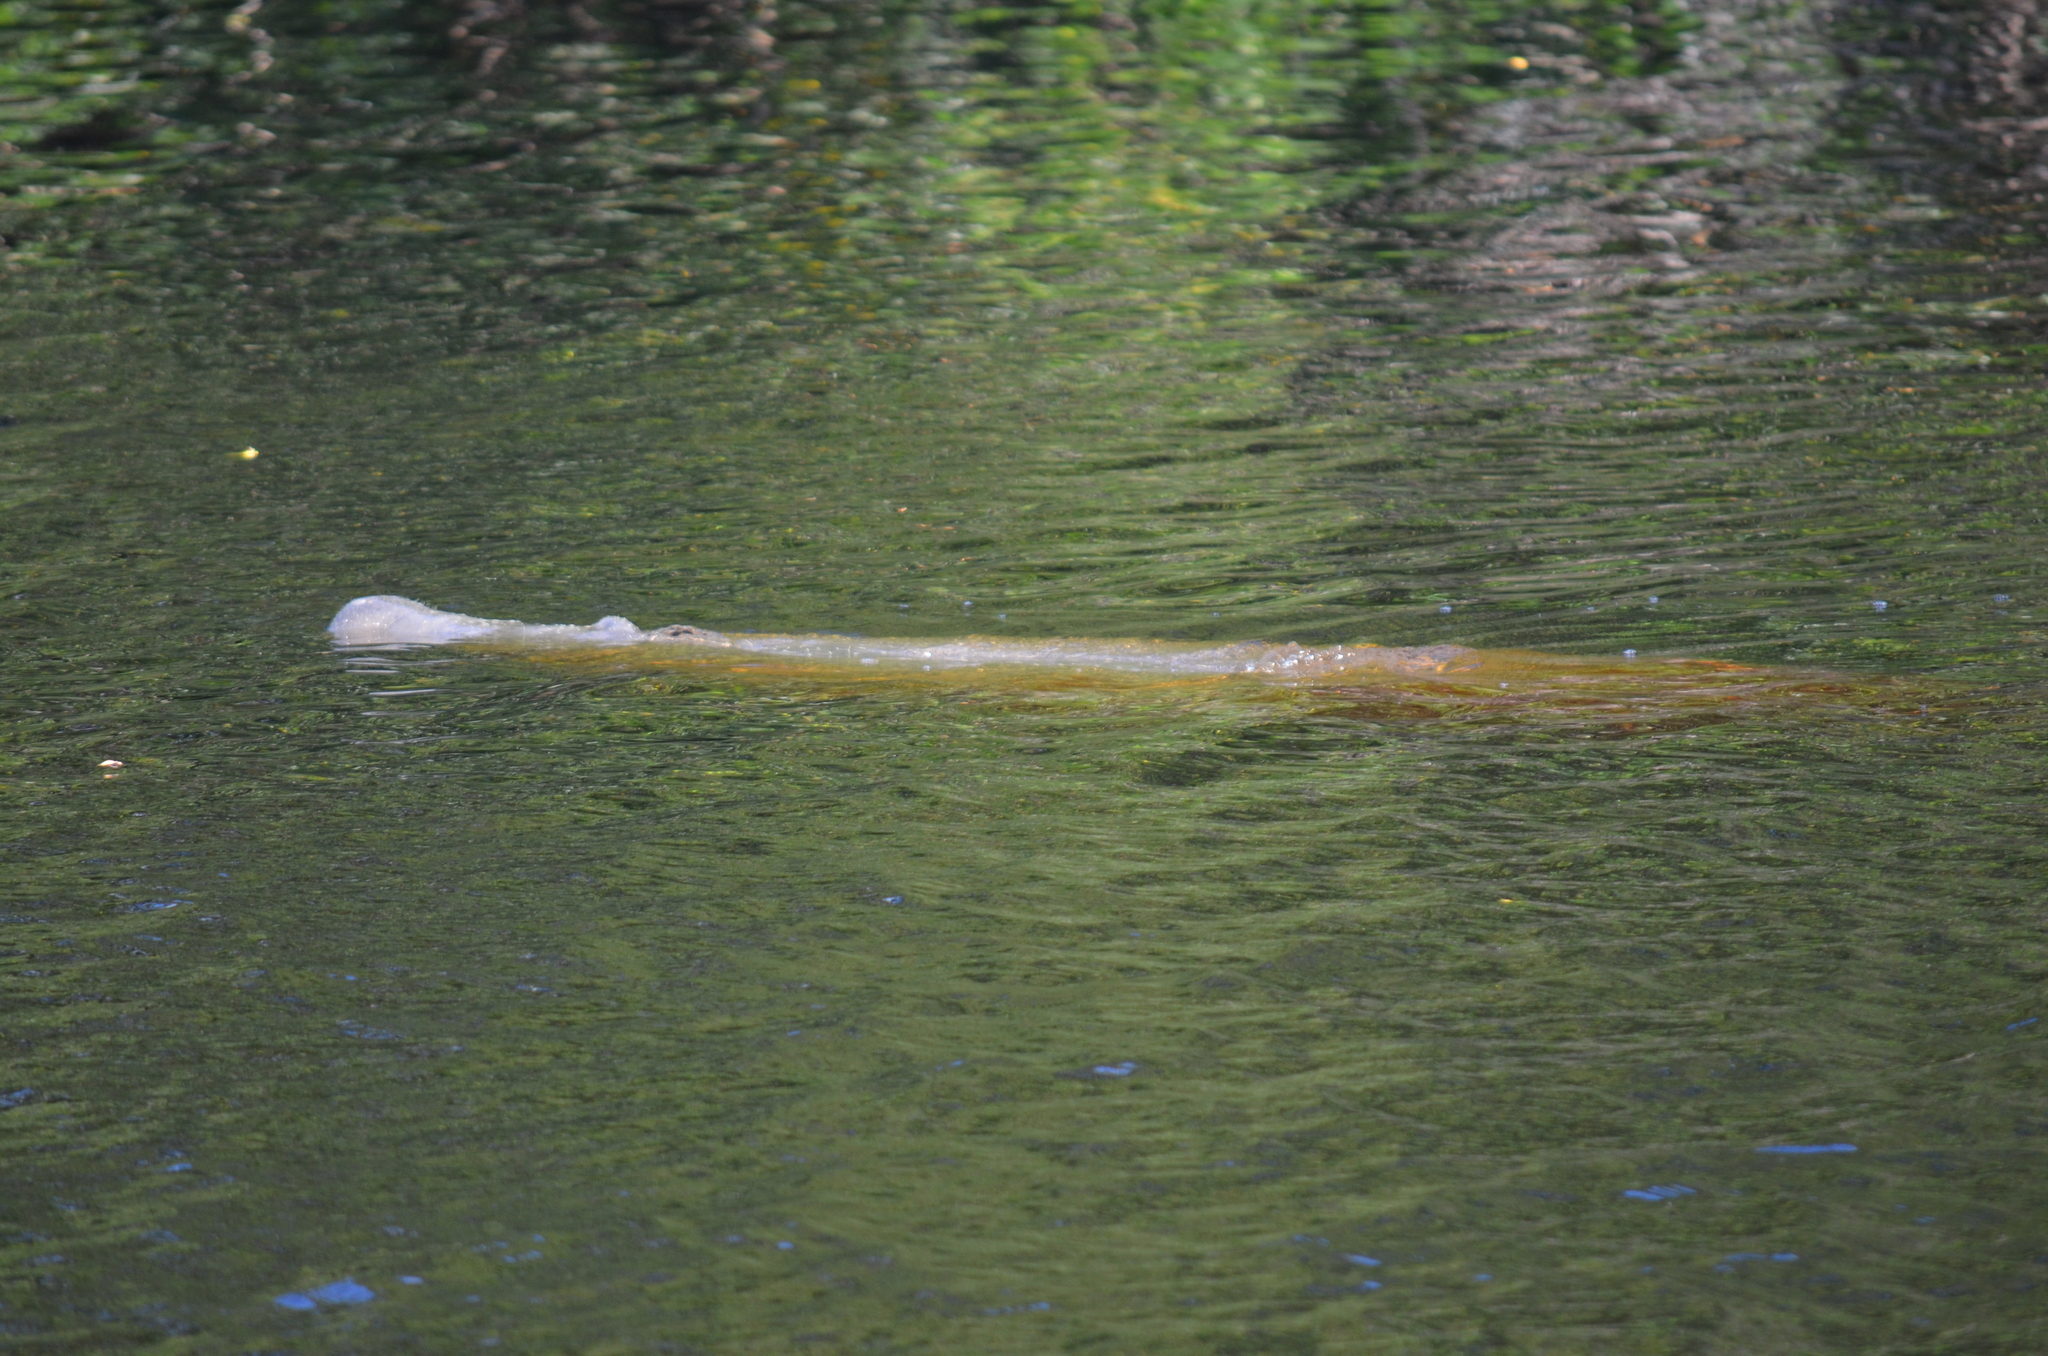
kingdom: Animalia
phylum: Chordata
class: Mammalia
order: Sirenia
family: Trichechidae
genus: Trichechus
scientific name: Trichechus manatus
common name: West indian manatee
